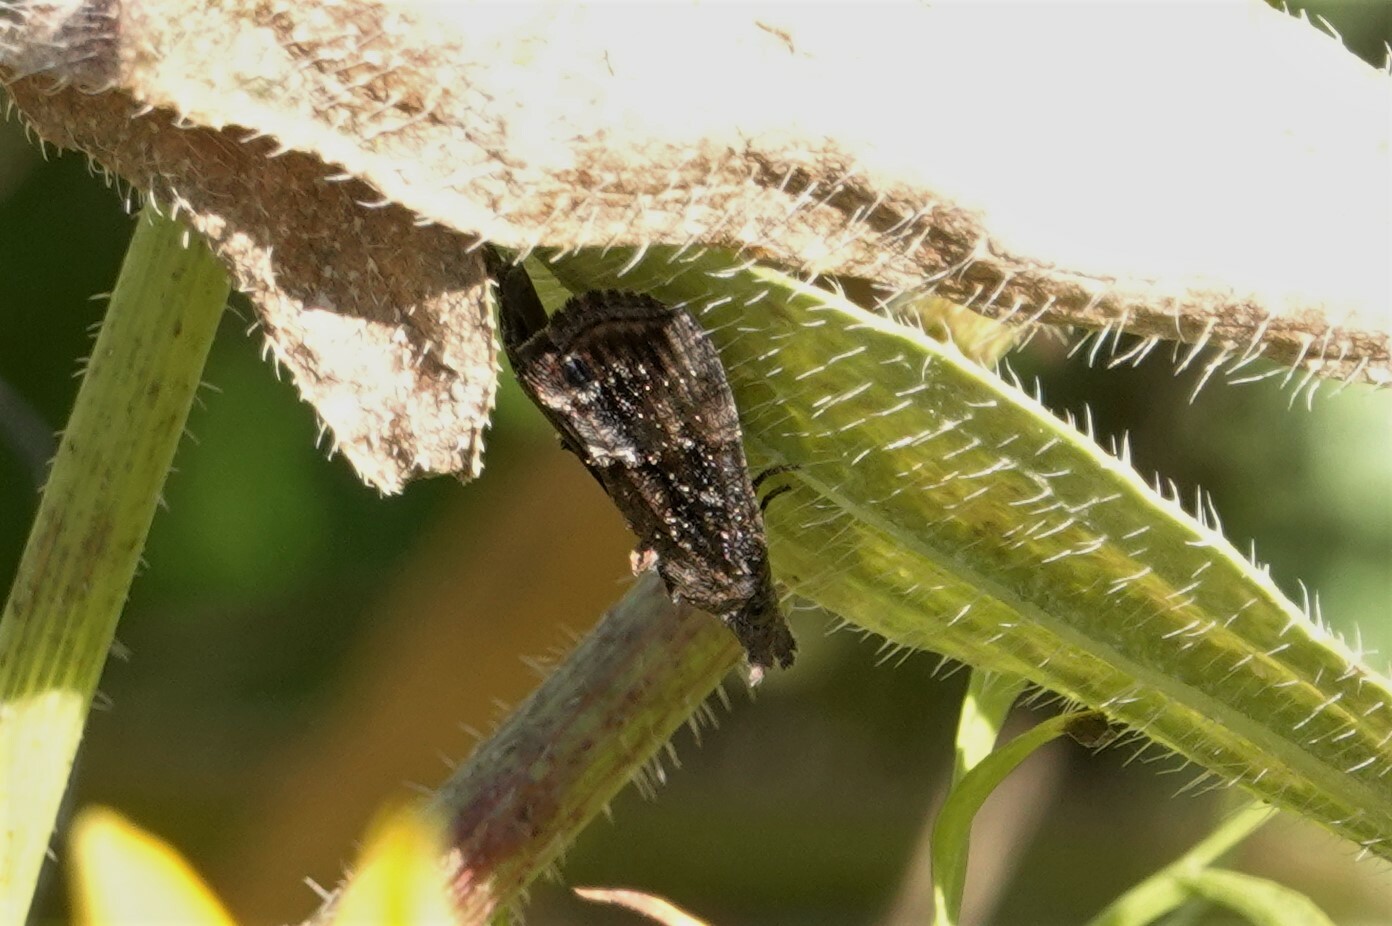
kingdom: Animalia
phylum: Arthropoda
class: Insecta
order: Lepidoptera
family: Erebidae
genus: Hypena
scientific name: Hypena scabra
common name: Green cloverworm
